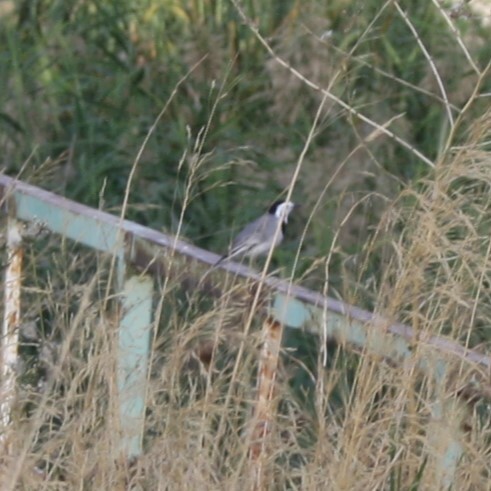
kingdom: Animalia
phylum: Chordata
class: Aves
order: Passeriformes
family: Motacillidae
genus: Motacilla
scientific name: Motacilla alba
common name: White wagtail
